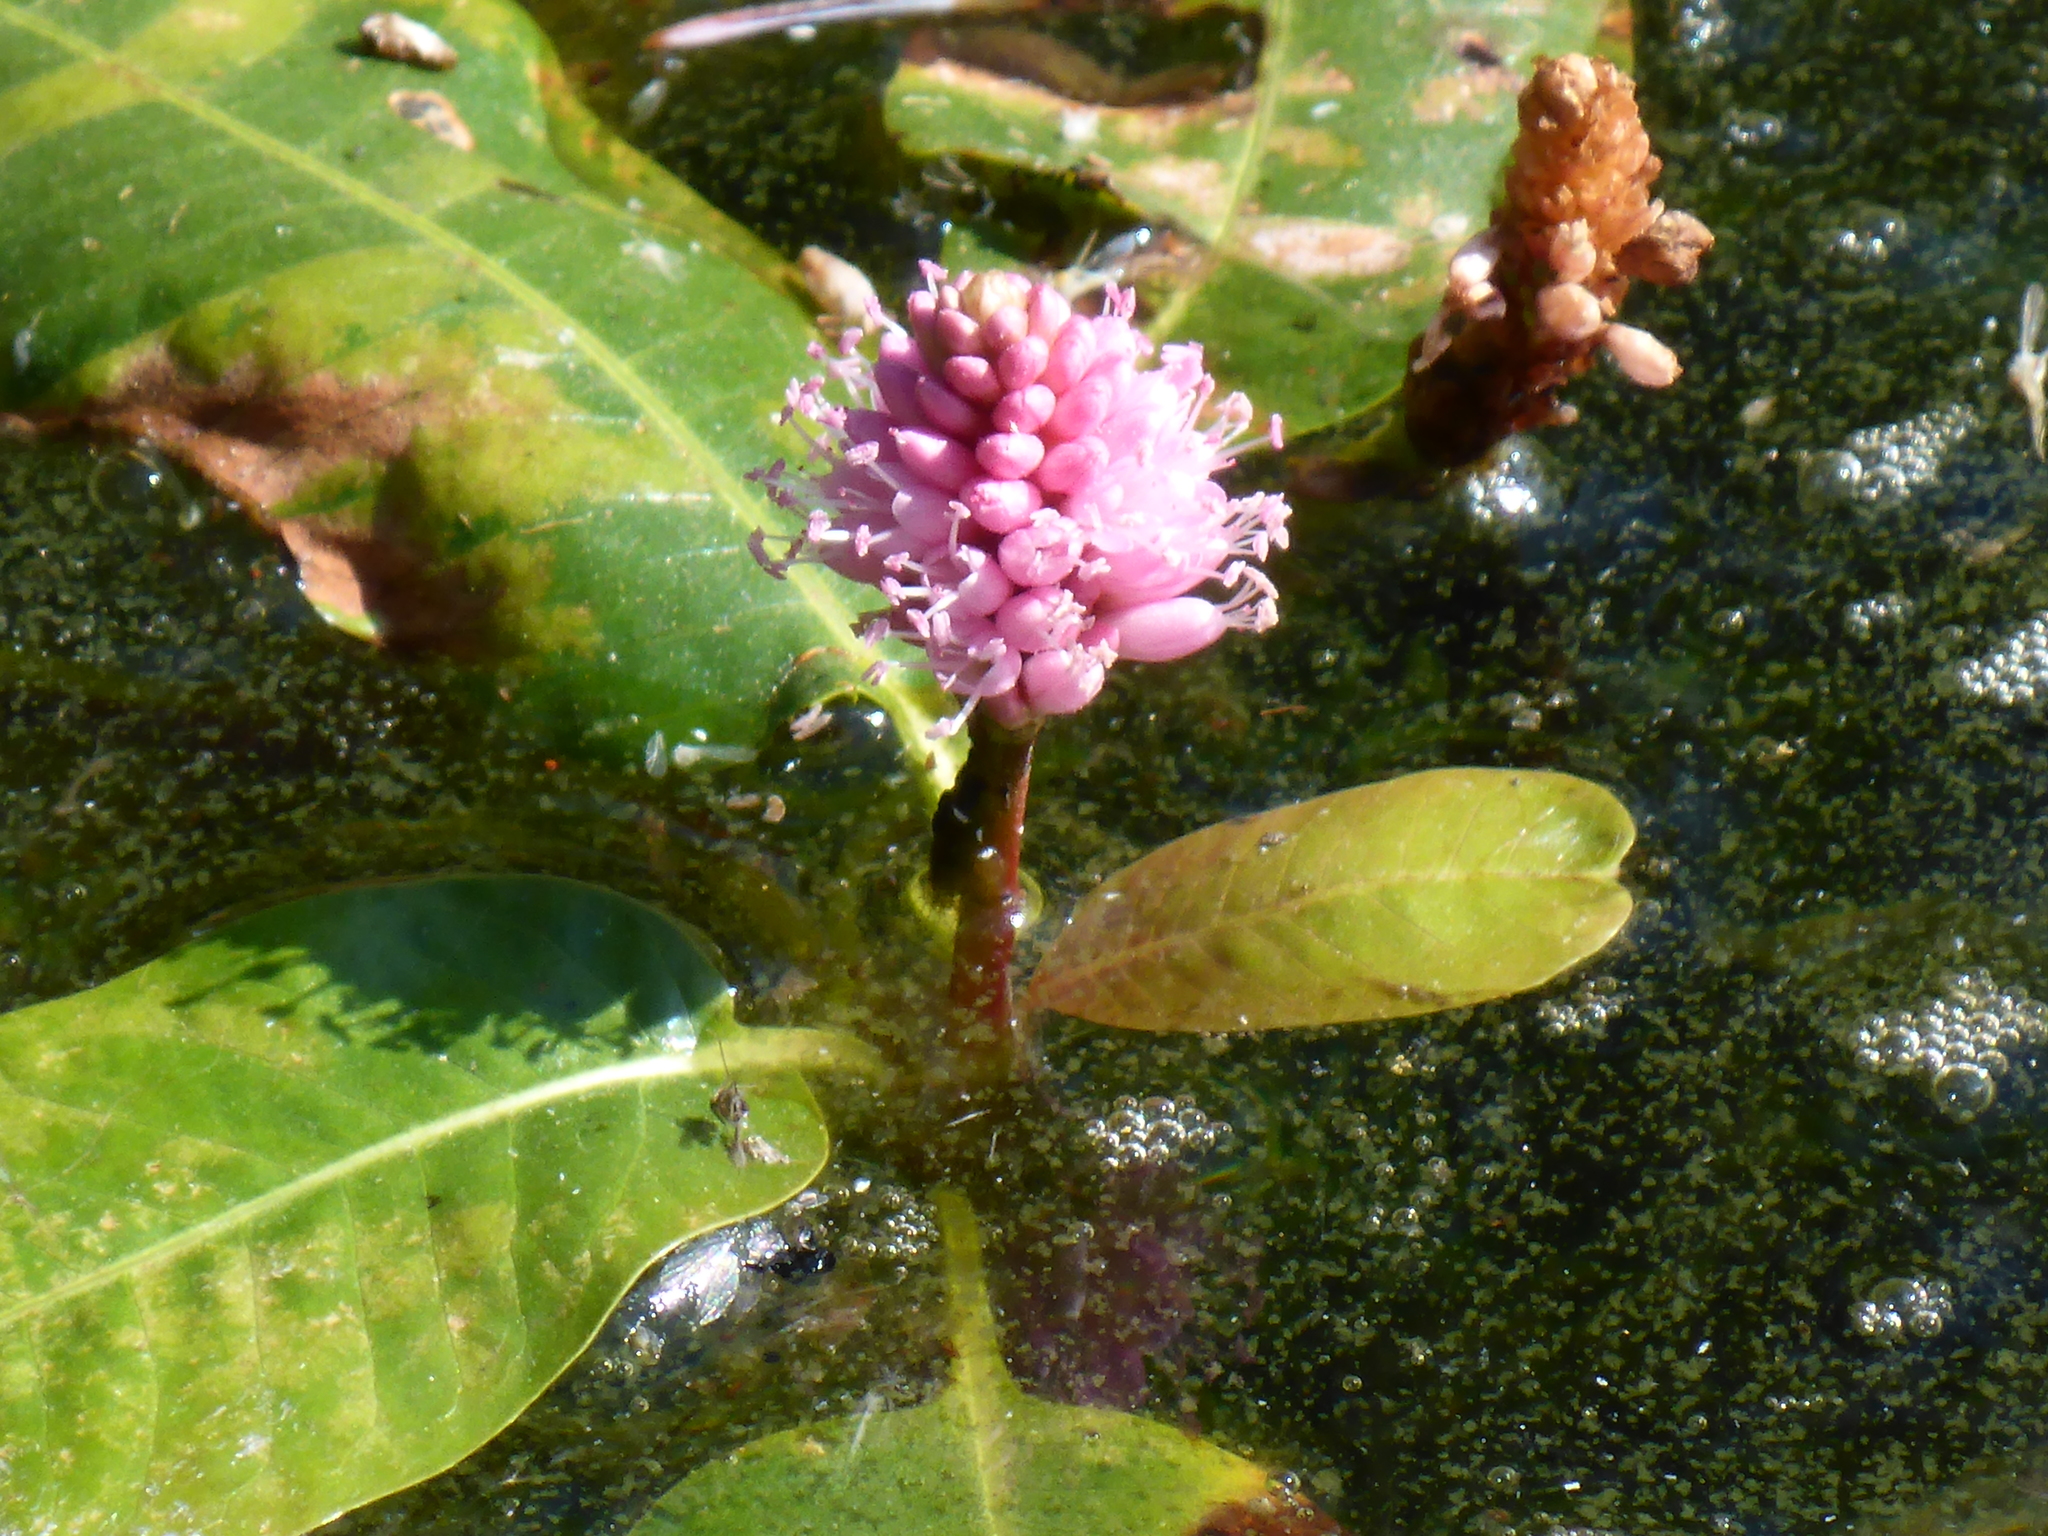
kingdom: Plantae
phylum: Tracheophyta
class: Magnoliopsida
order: Caryophyllales
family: Polygonaceae
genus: Persicaria
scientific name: Persicaria amphibia
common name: Amphibious bistort
